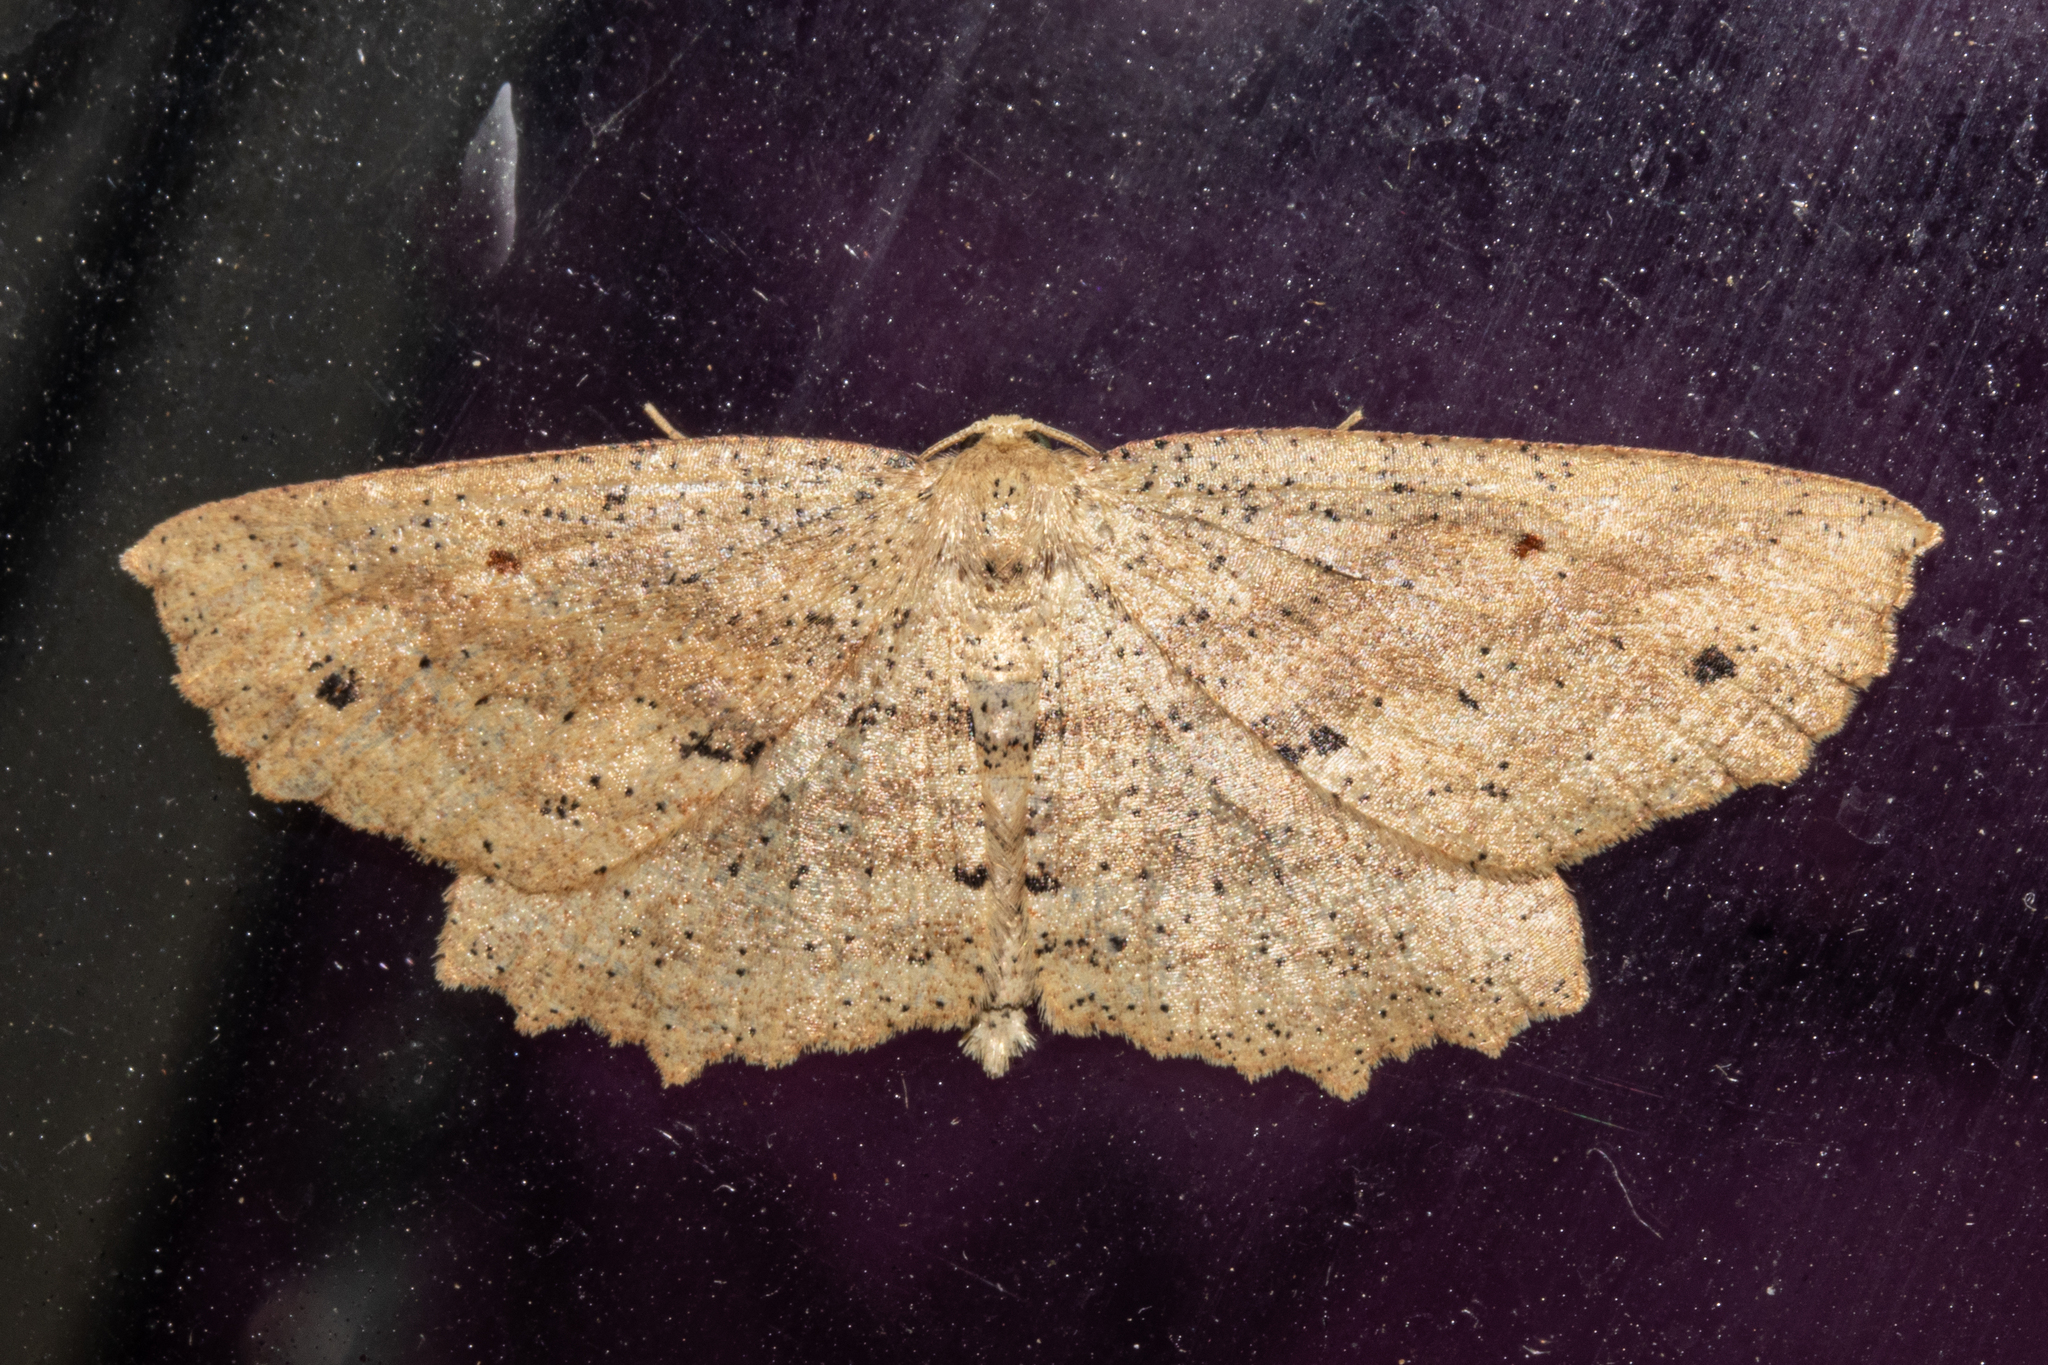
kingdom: Animalia
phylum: Arthropoda
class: Insecta
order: Lepidoptera
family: Geometridae
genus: Xyridacma
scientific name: Xyridacma veronicae
